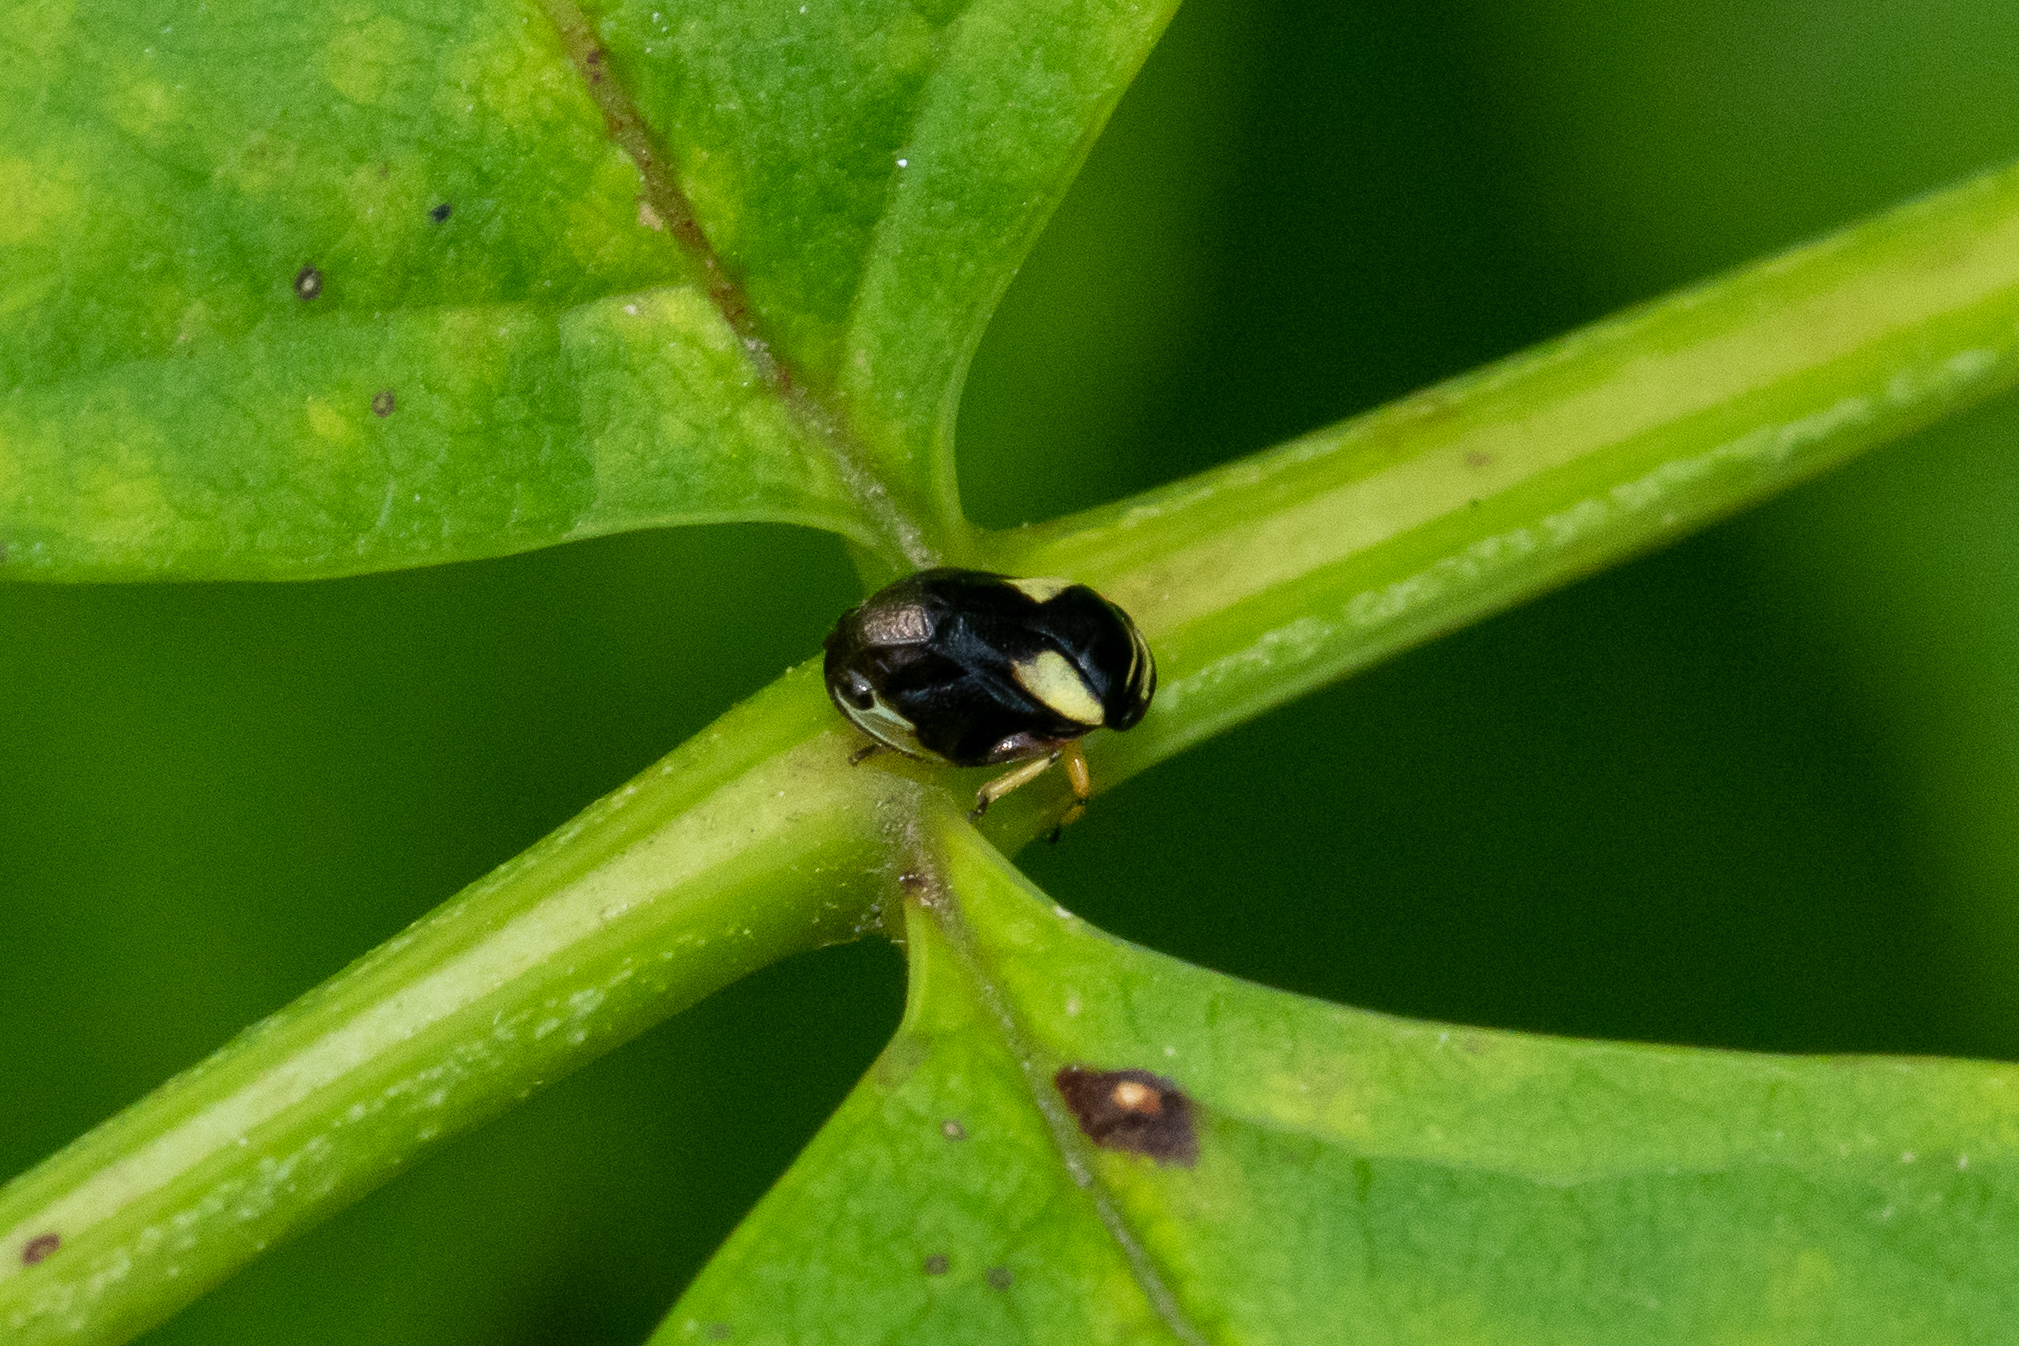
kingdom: Animalia
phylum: Arthropoda
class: Insecta
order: Hemiptera
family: Clastopteridae
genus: Clastoptera
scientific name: Clastoptera proteus
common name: Dogwood spittlebug
